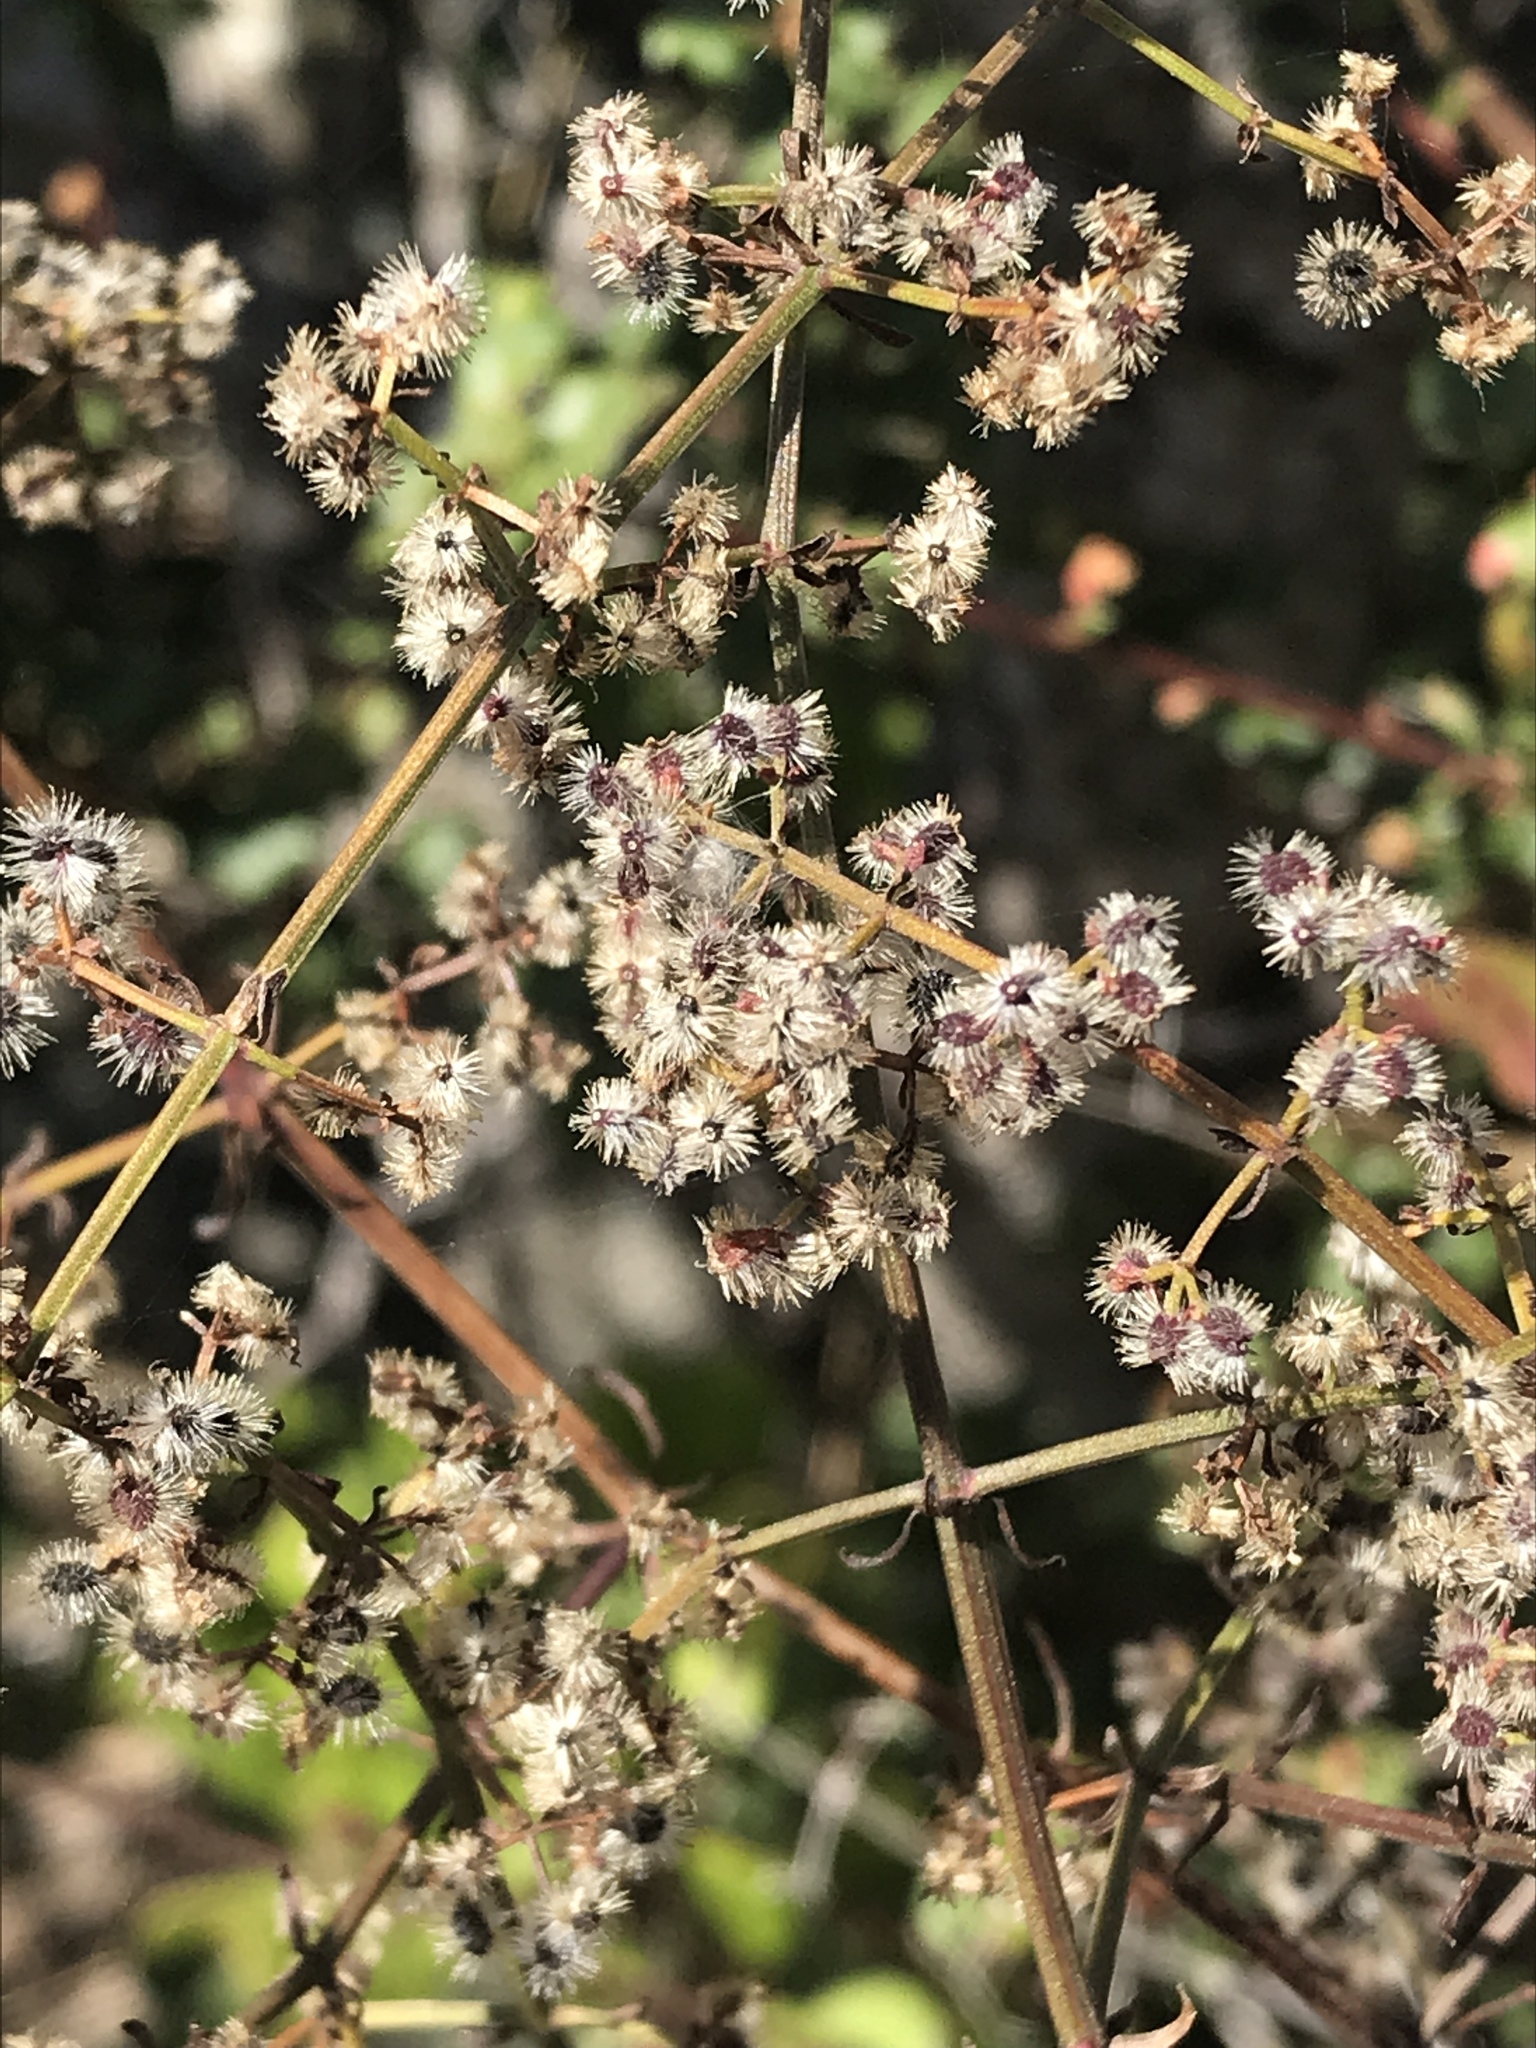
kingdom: Plantae
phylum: Tracheophyta
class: Magnoliopsida
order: Gentianales
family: Rubiaceae
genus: Galium
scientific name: Galium angustifolium
